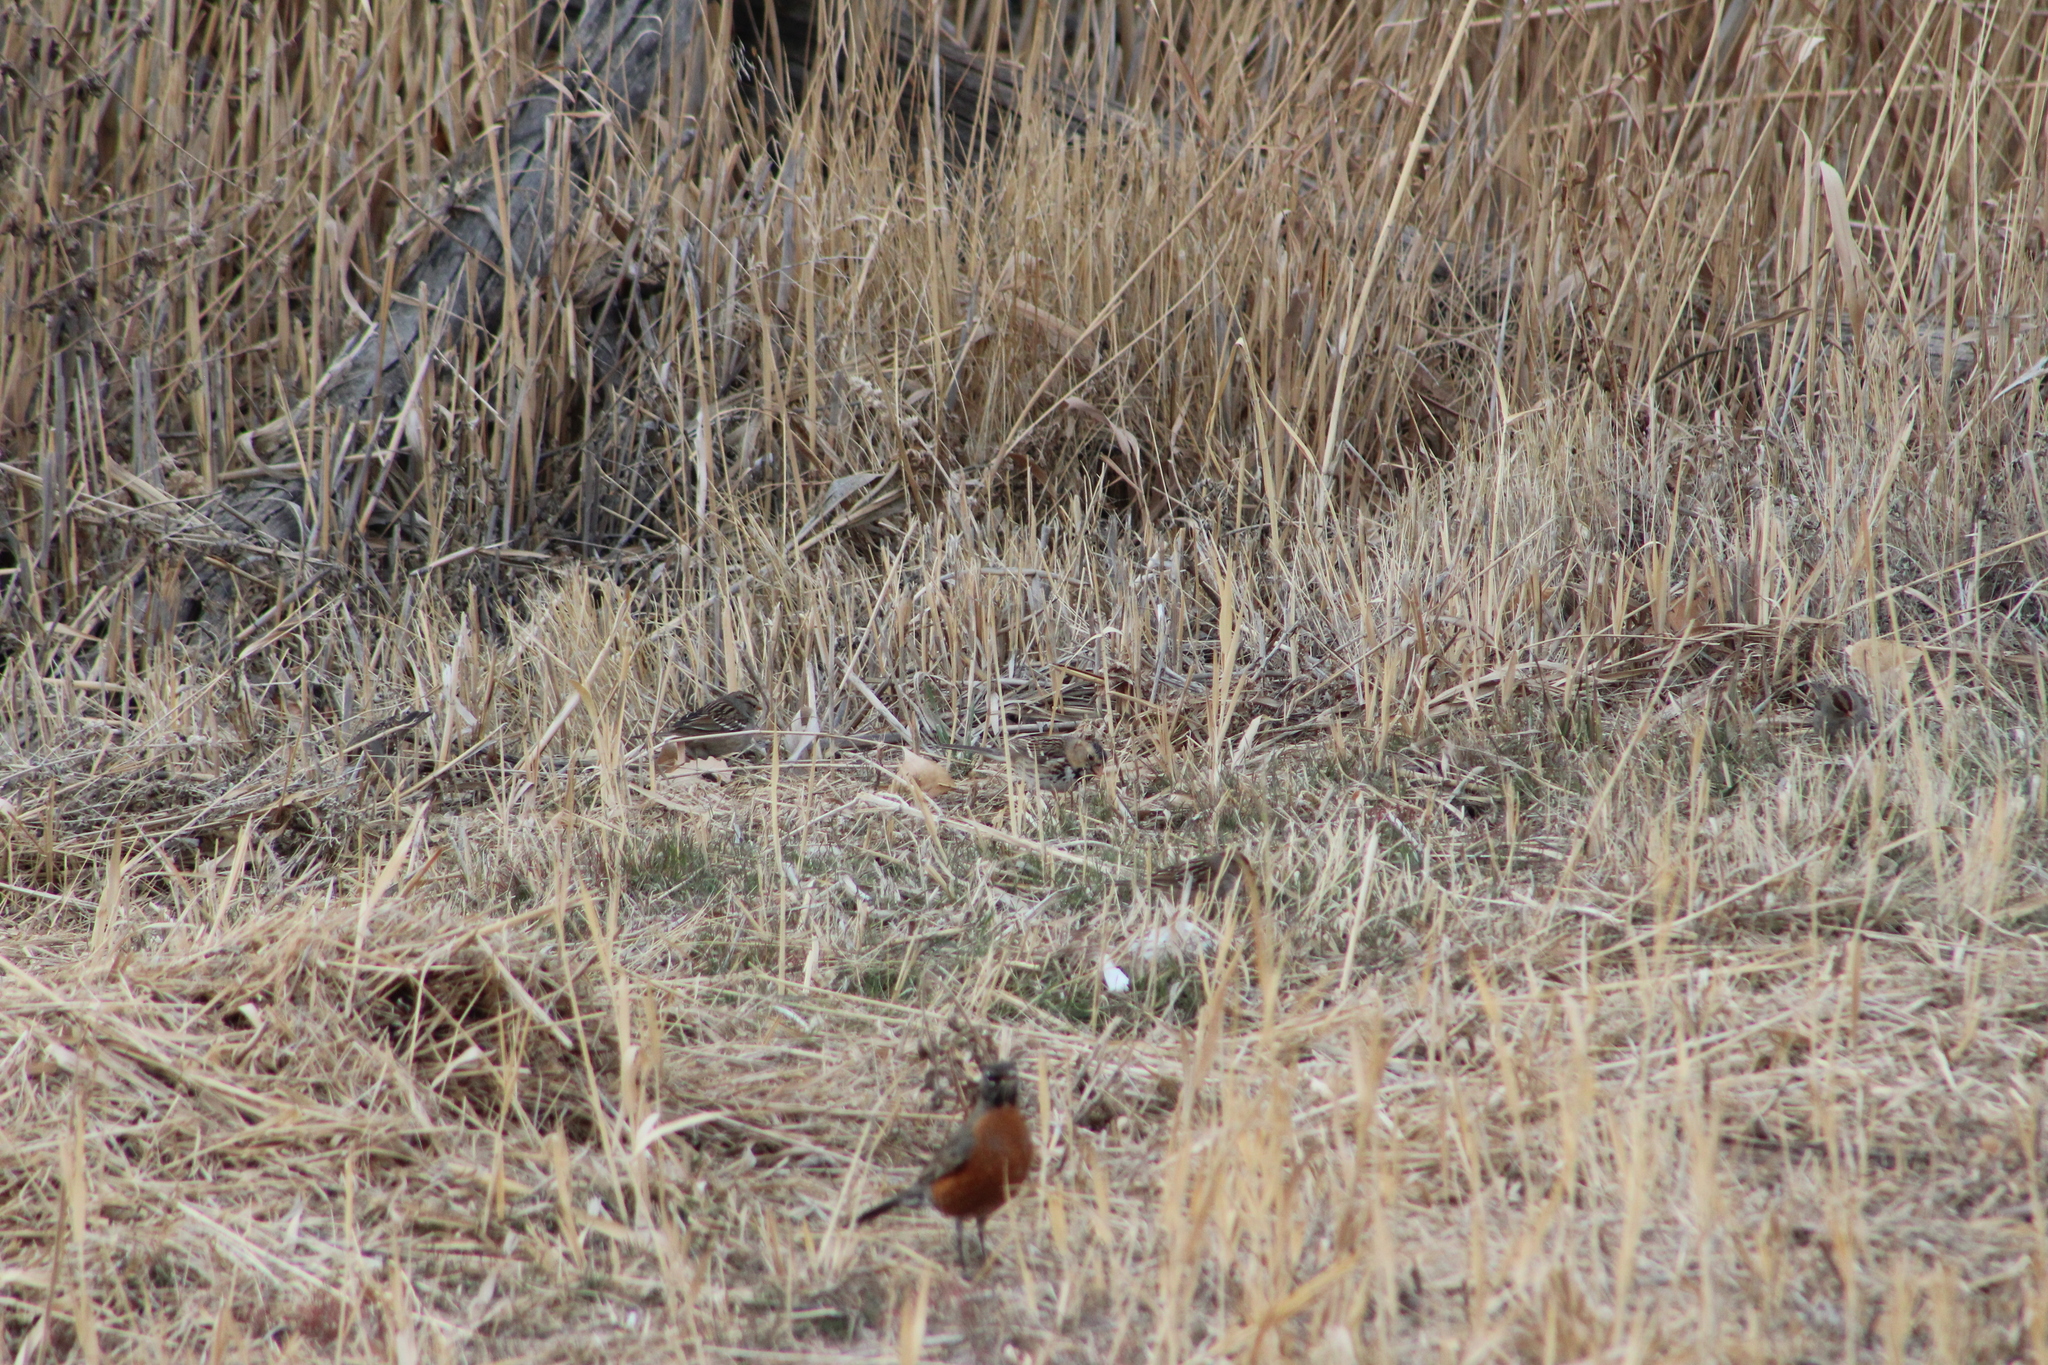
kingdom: Animalia
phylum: Chordata
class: Aves
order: Passeriformes
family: Passerellidae
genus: Zonotrichia
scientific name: Zonotrichia querula
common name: Harris's sparrow
